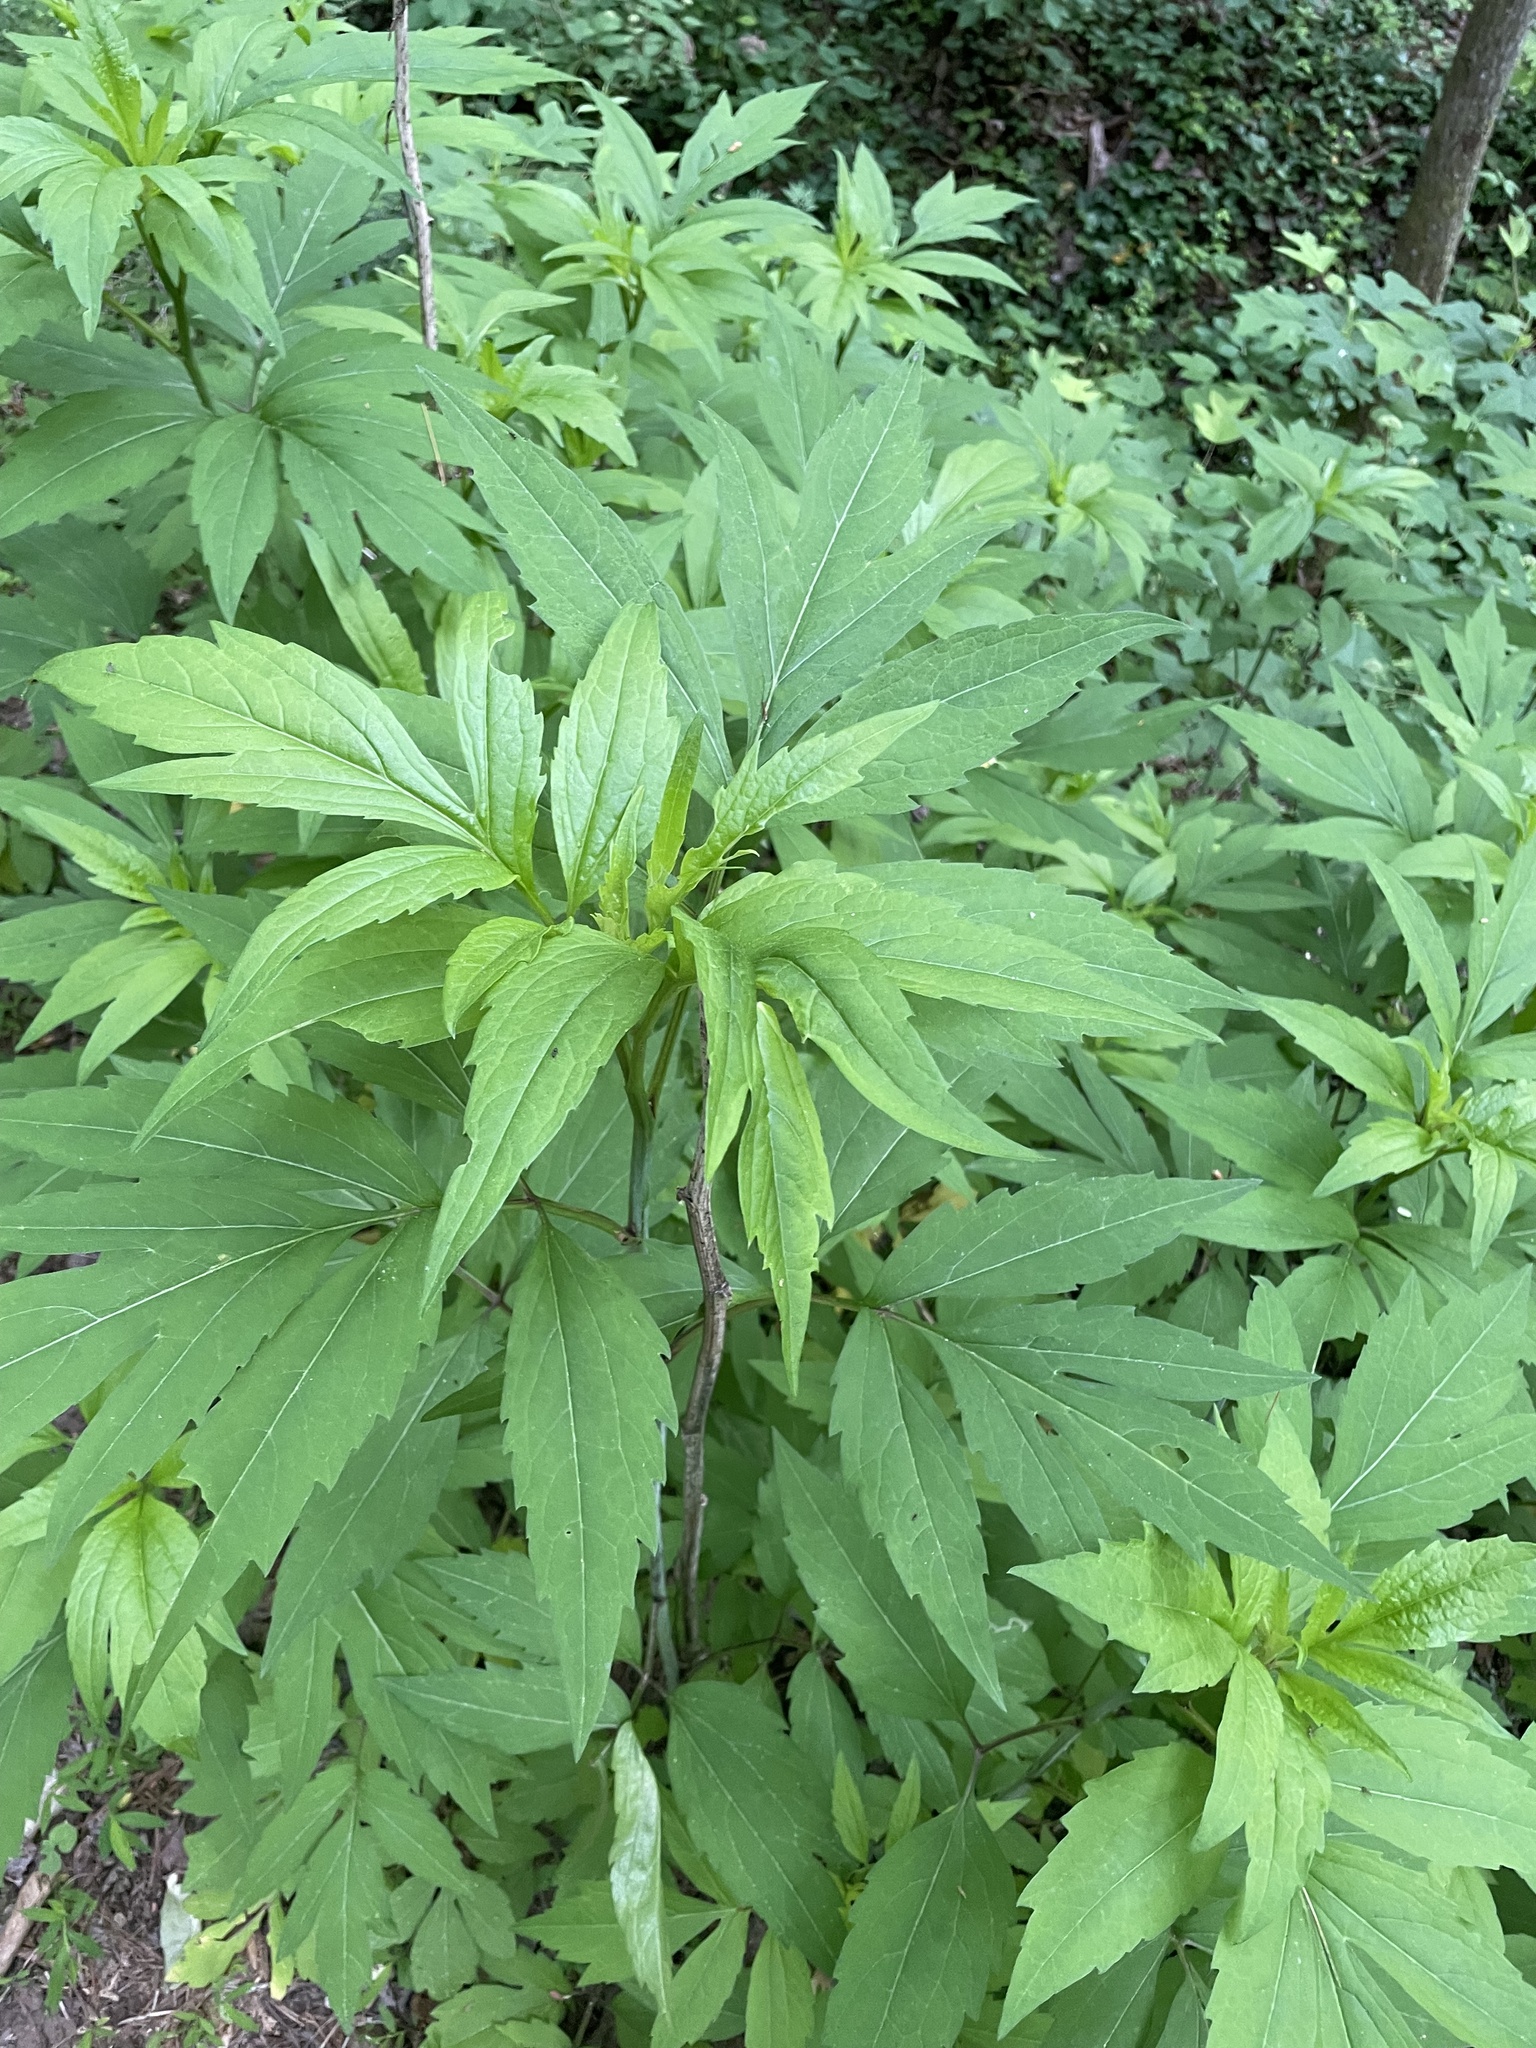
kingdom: Plantae
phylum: Tracheophyta
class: Magnoliopsida
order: Asterales
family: Asteraceae
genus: Rudbeckia
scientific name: Rudbeckia laciniata
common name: Coneflower
